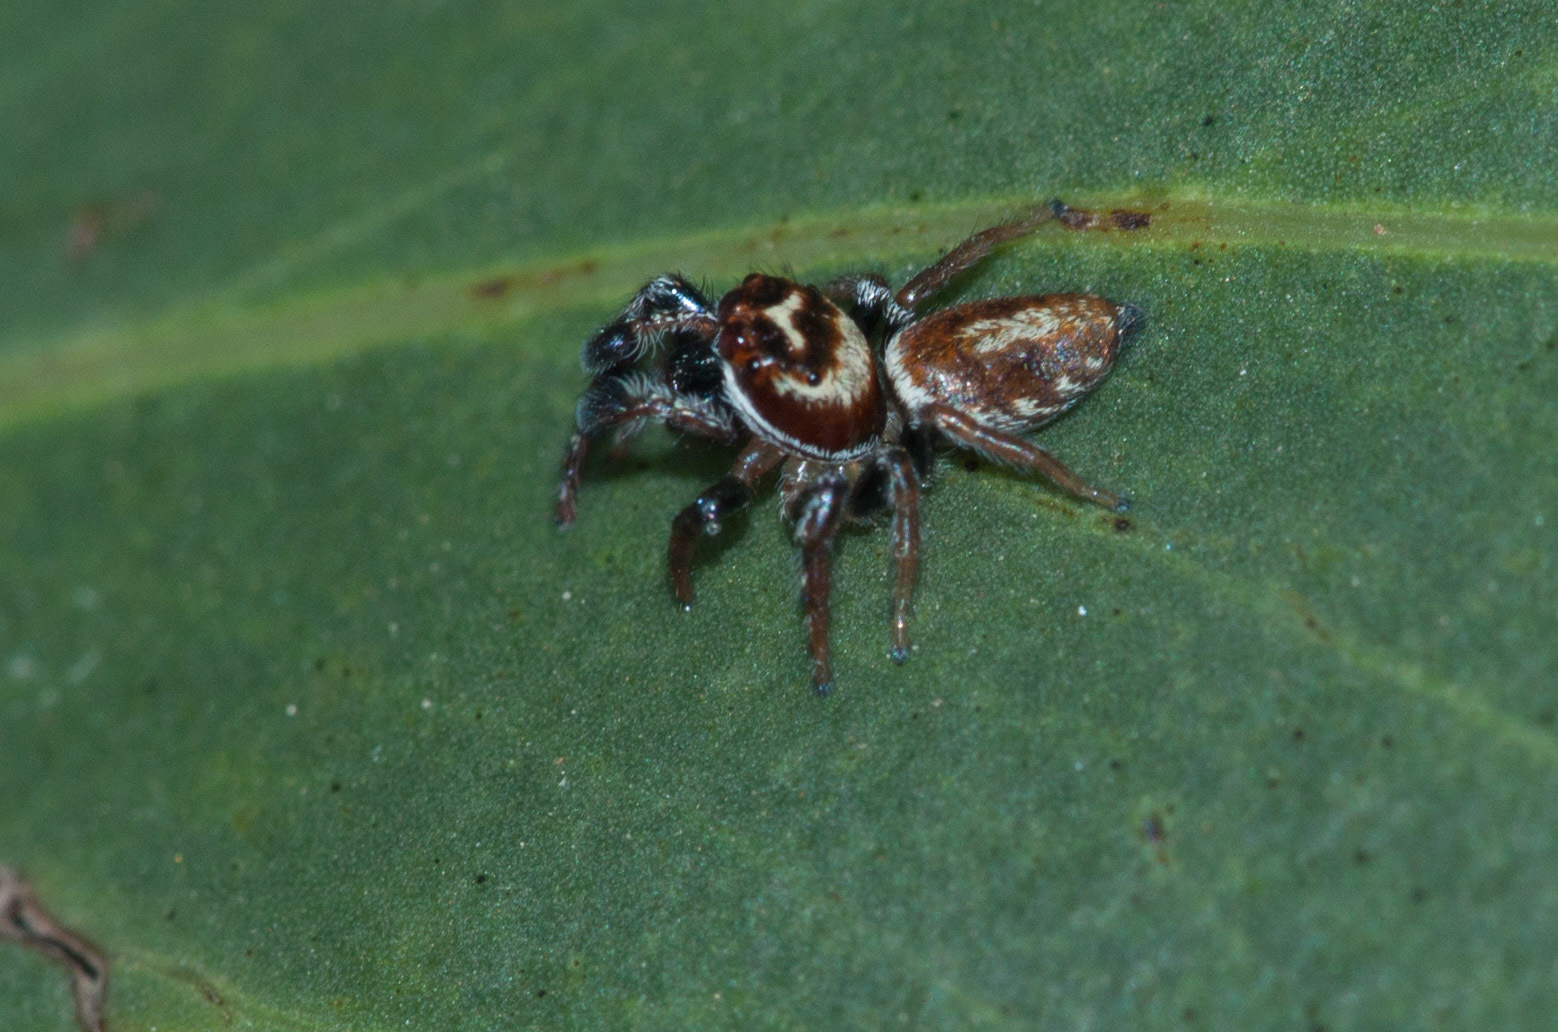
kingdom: Animalia
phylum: Arthropoda
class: Arachnida
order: Araneae
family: Salticidae
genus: Opisthoncus
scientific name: Opisthoncus nigrofemoratus
